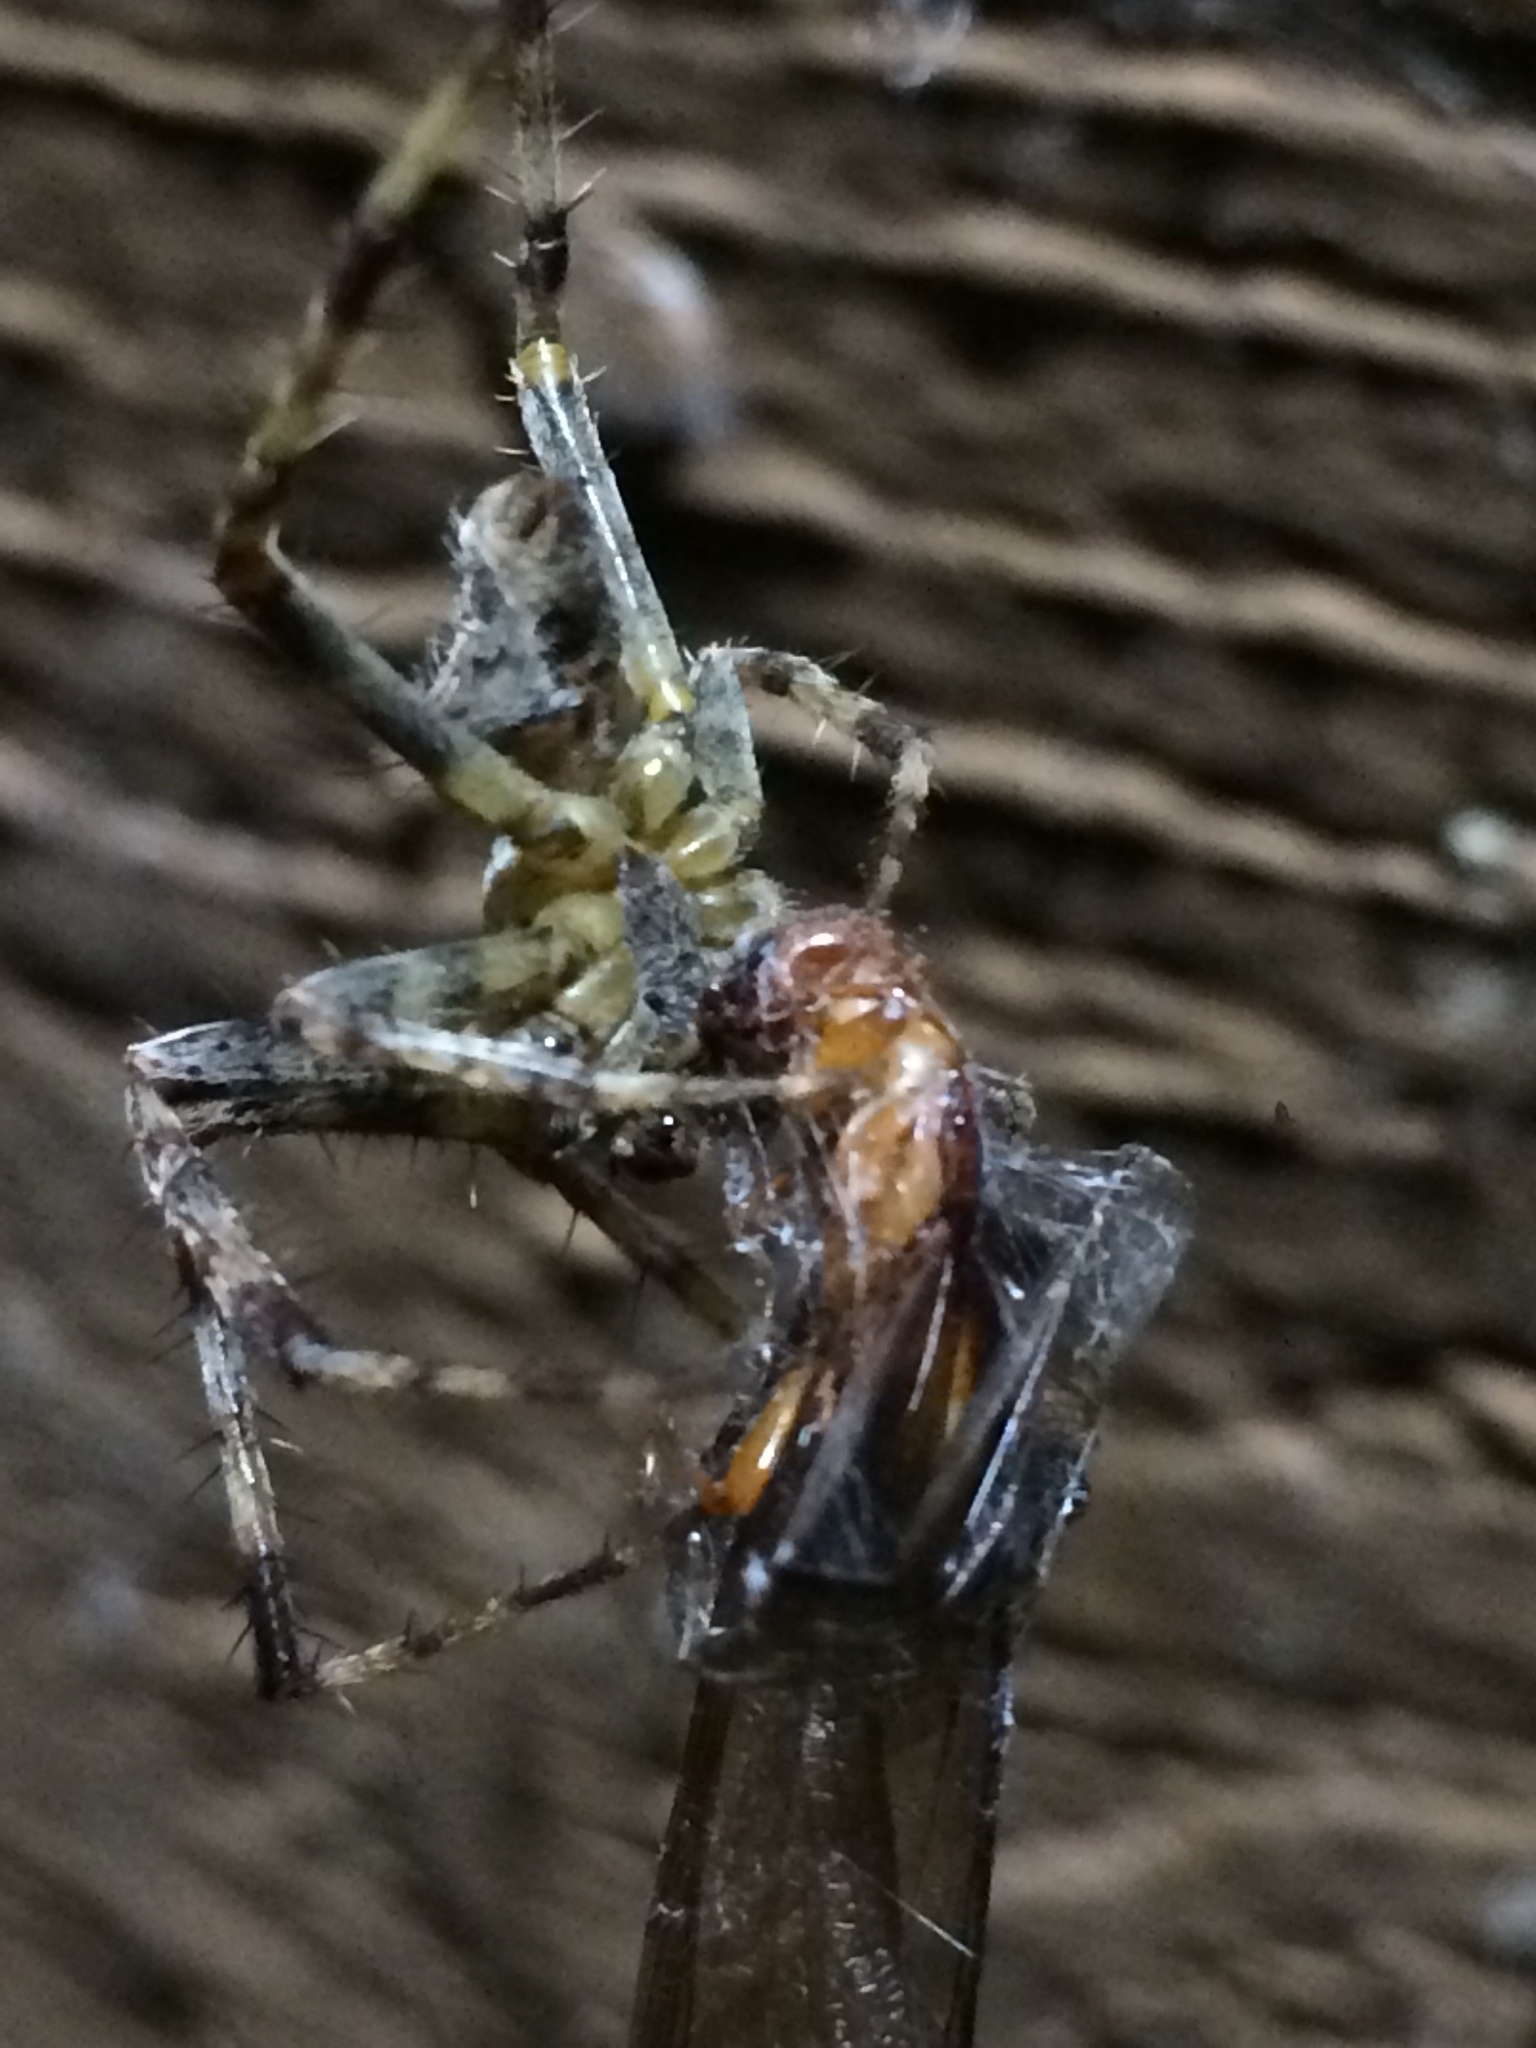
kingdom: Animalia
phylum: Arthropoda
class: Arachnida
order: Araneae
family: Araneidae
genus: Araneus
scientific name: Araneus diadematus
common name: Cross orbweaver
